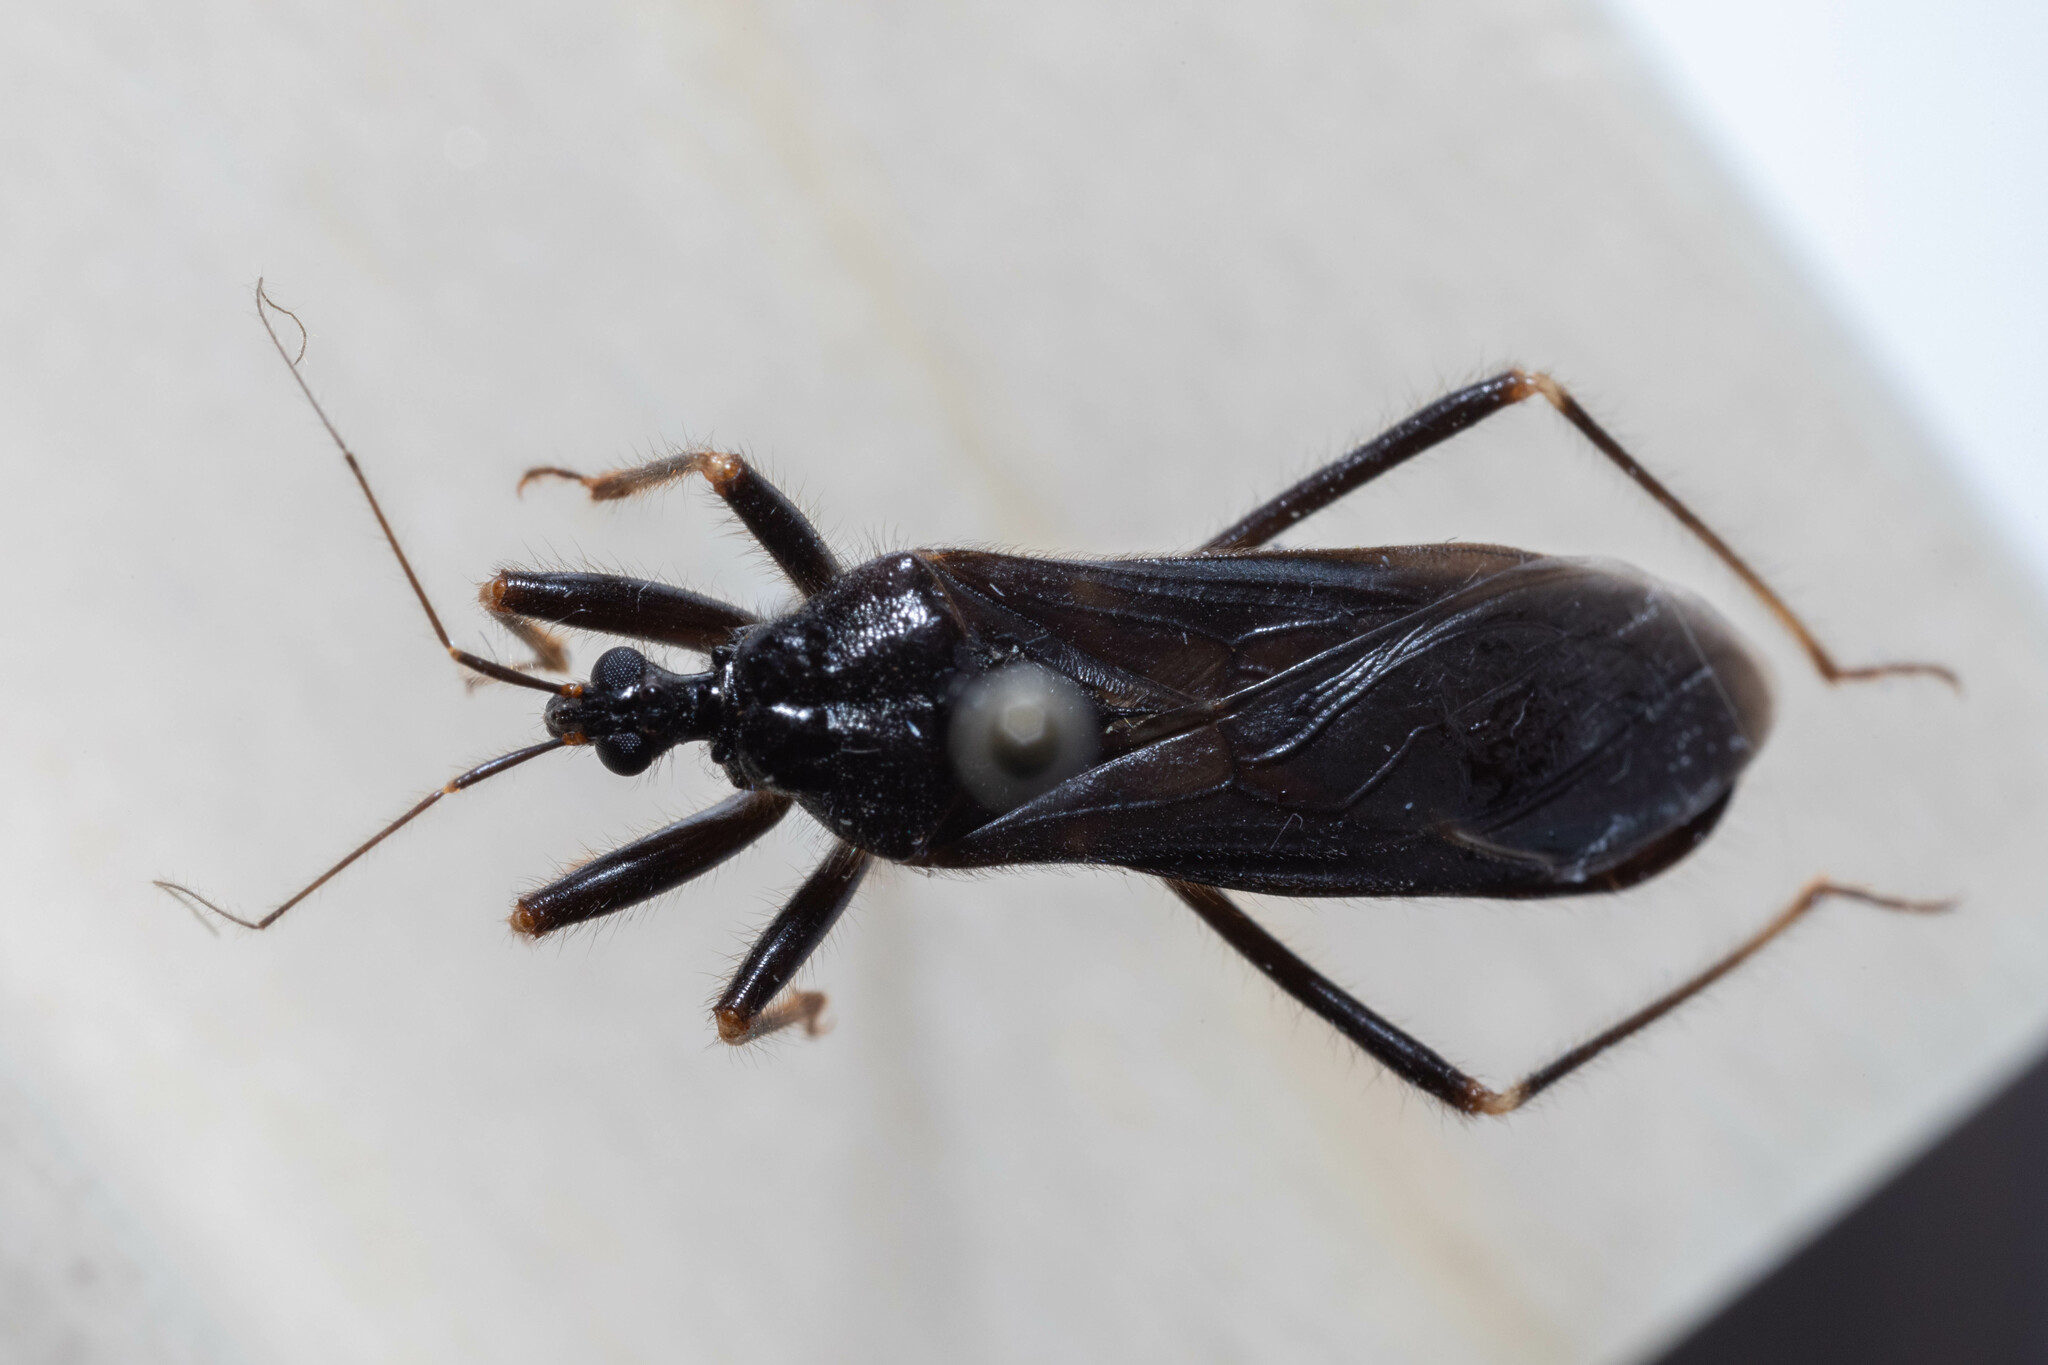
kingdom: Animalia
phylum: Arthropoda
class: Insecta
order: Hemiptera
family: Reduviidae
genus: Reduvius
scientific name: Reduvius personatus
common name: Masked hunter
